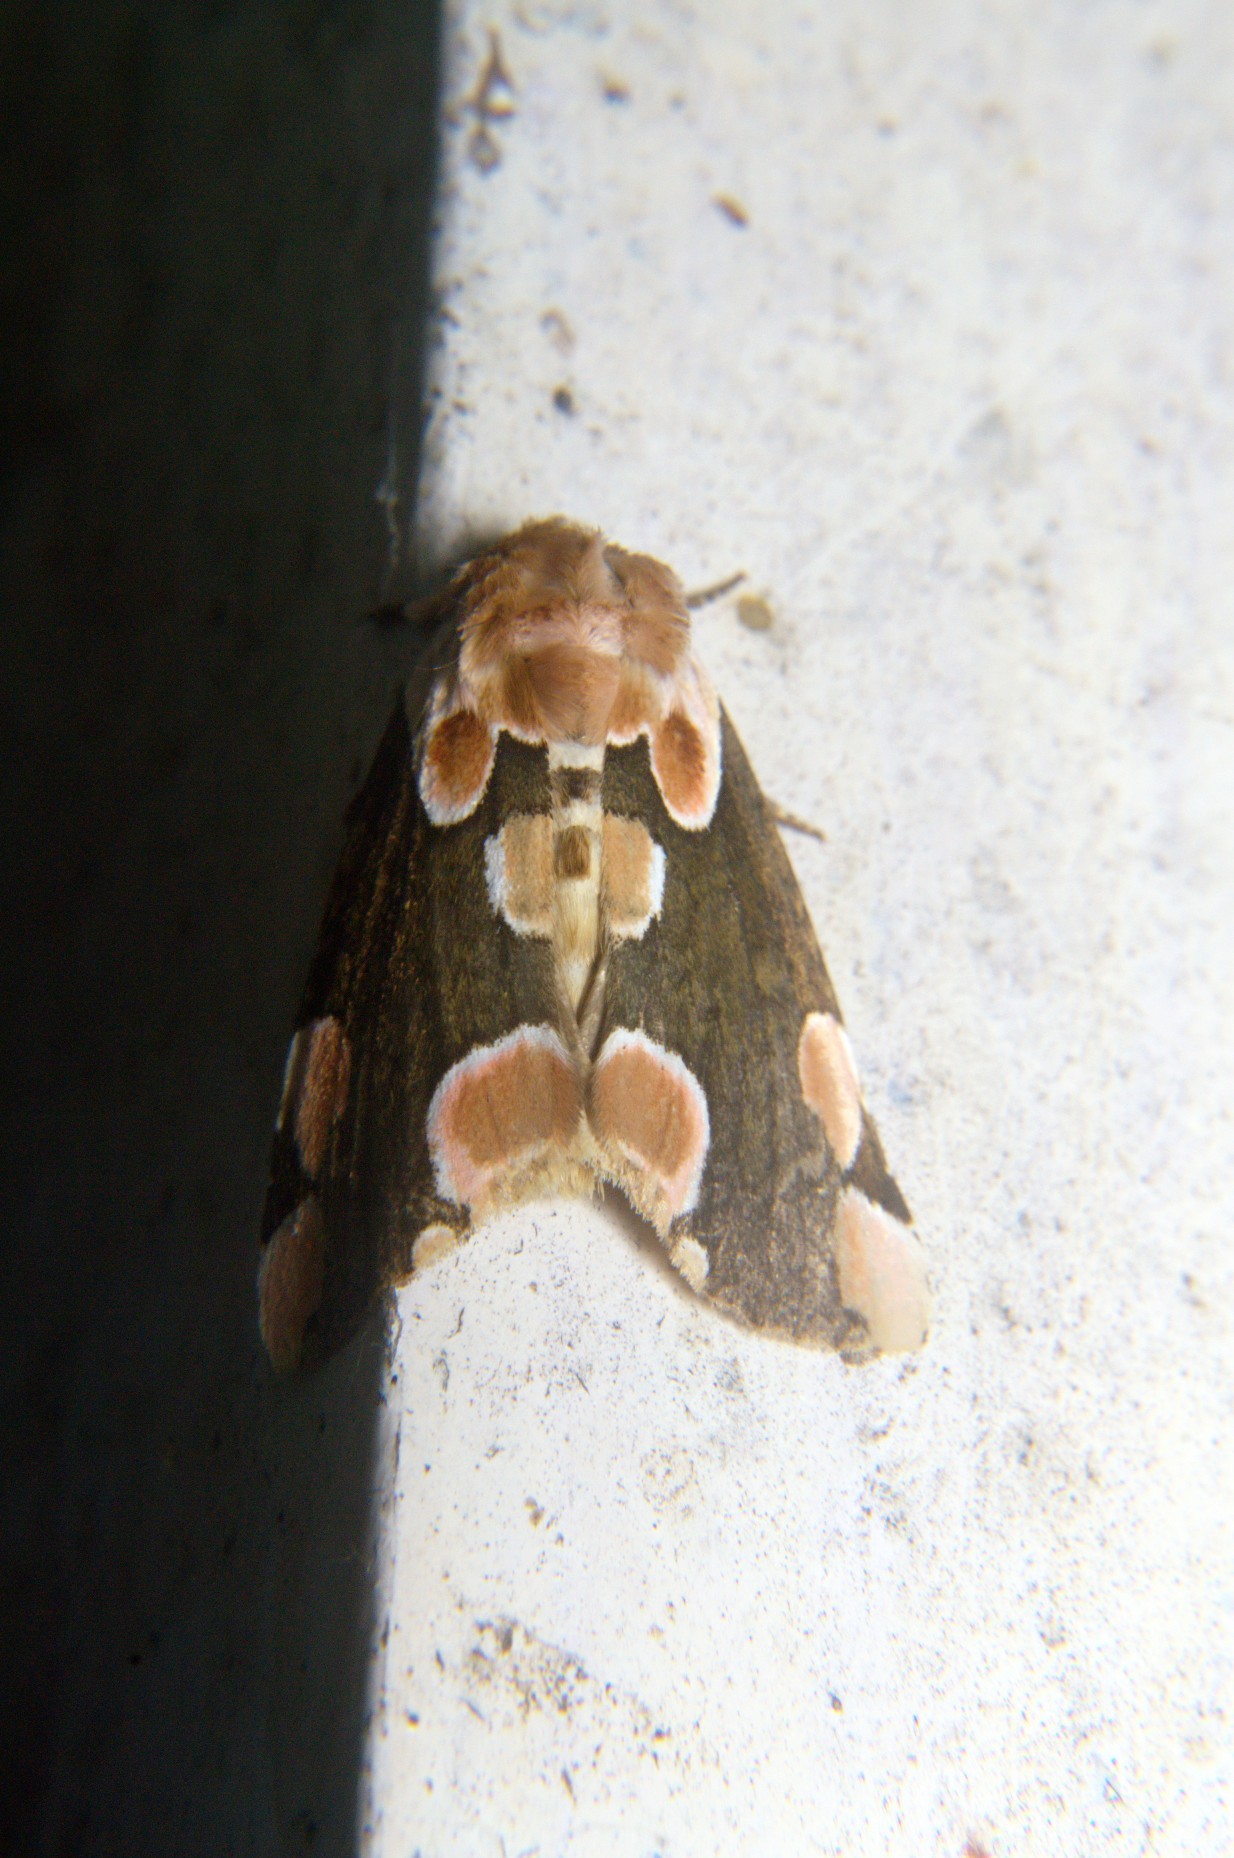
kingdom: Animalia
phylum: Arthropoda
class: Insecta
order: Lepidoptera
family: Drepanidae
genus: Thyatira
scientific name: Thyatira batis
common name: Peach blossom
